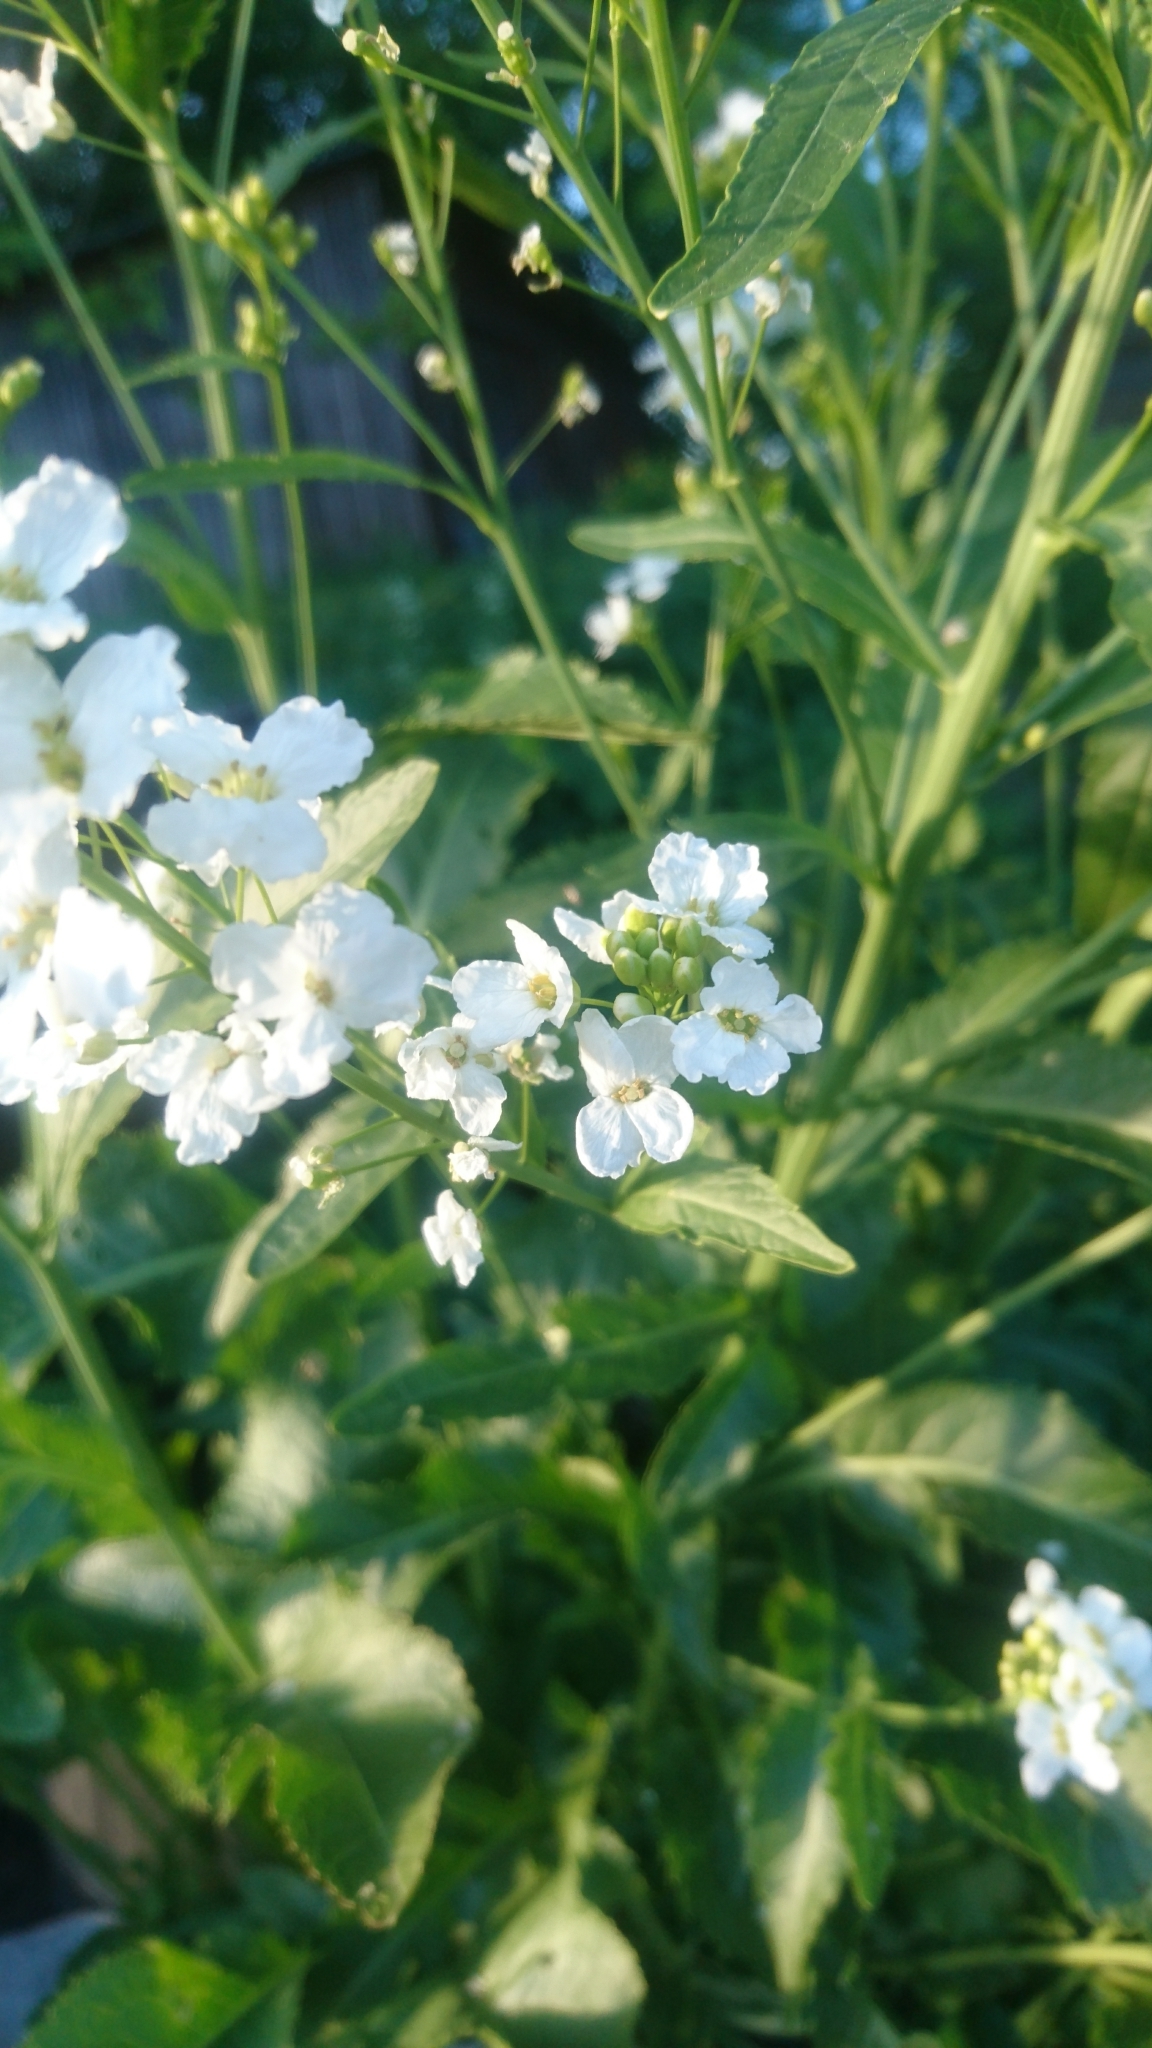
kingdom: Plantae
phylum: Tracheophyta
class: Magnoliopsida
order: Brassicales
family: Brassicaceae
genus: Armoracia
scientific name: Armoracia rusticana
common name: Horseradish
